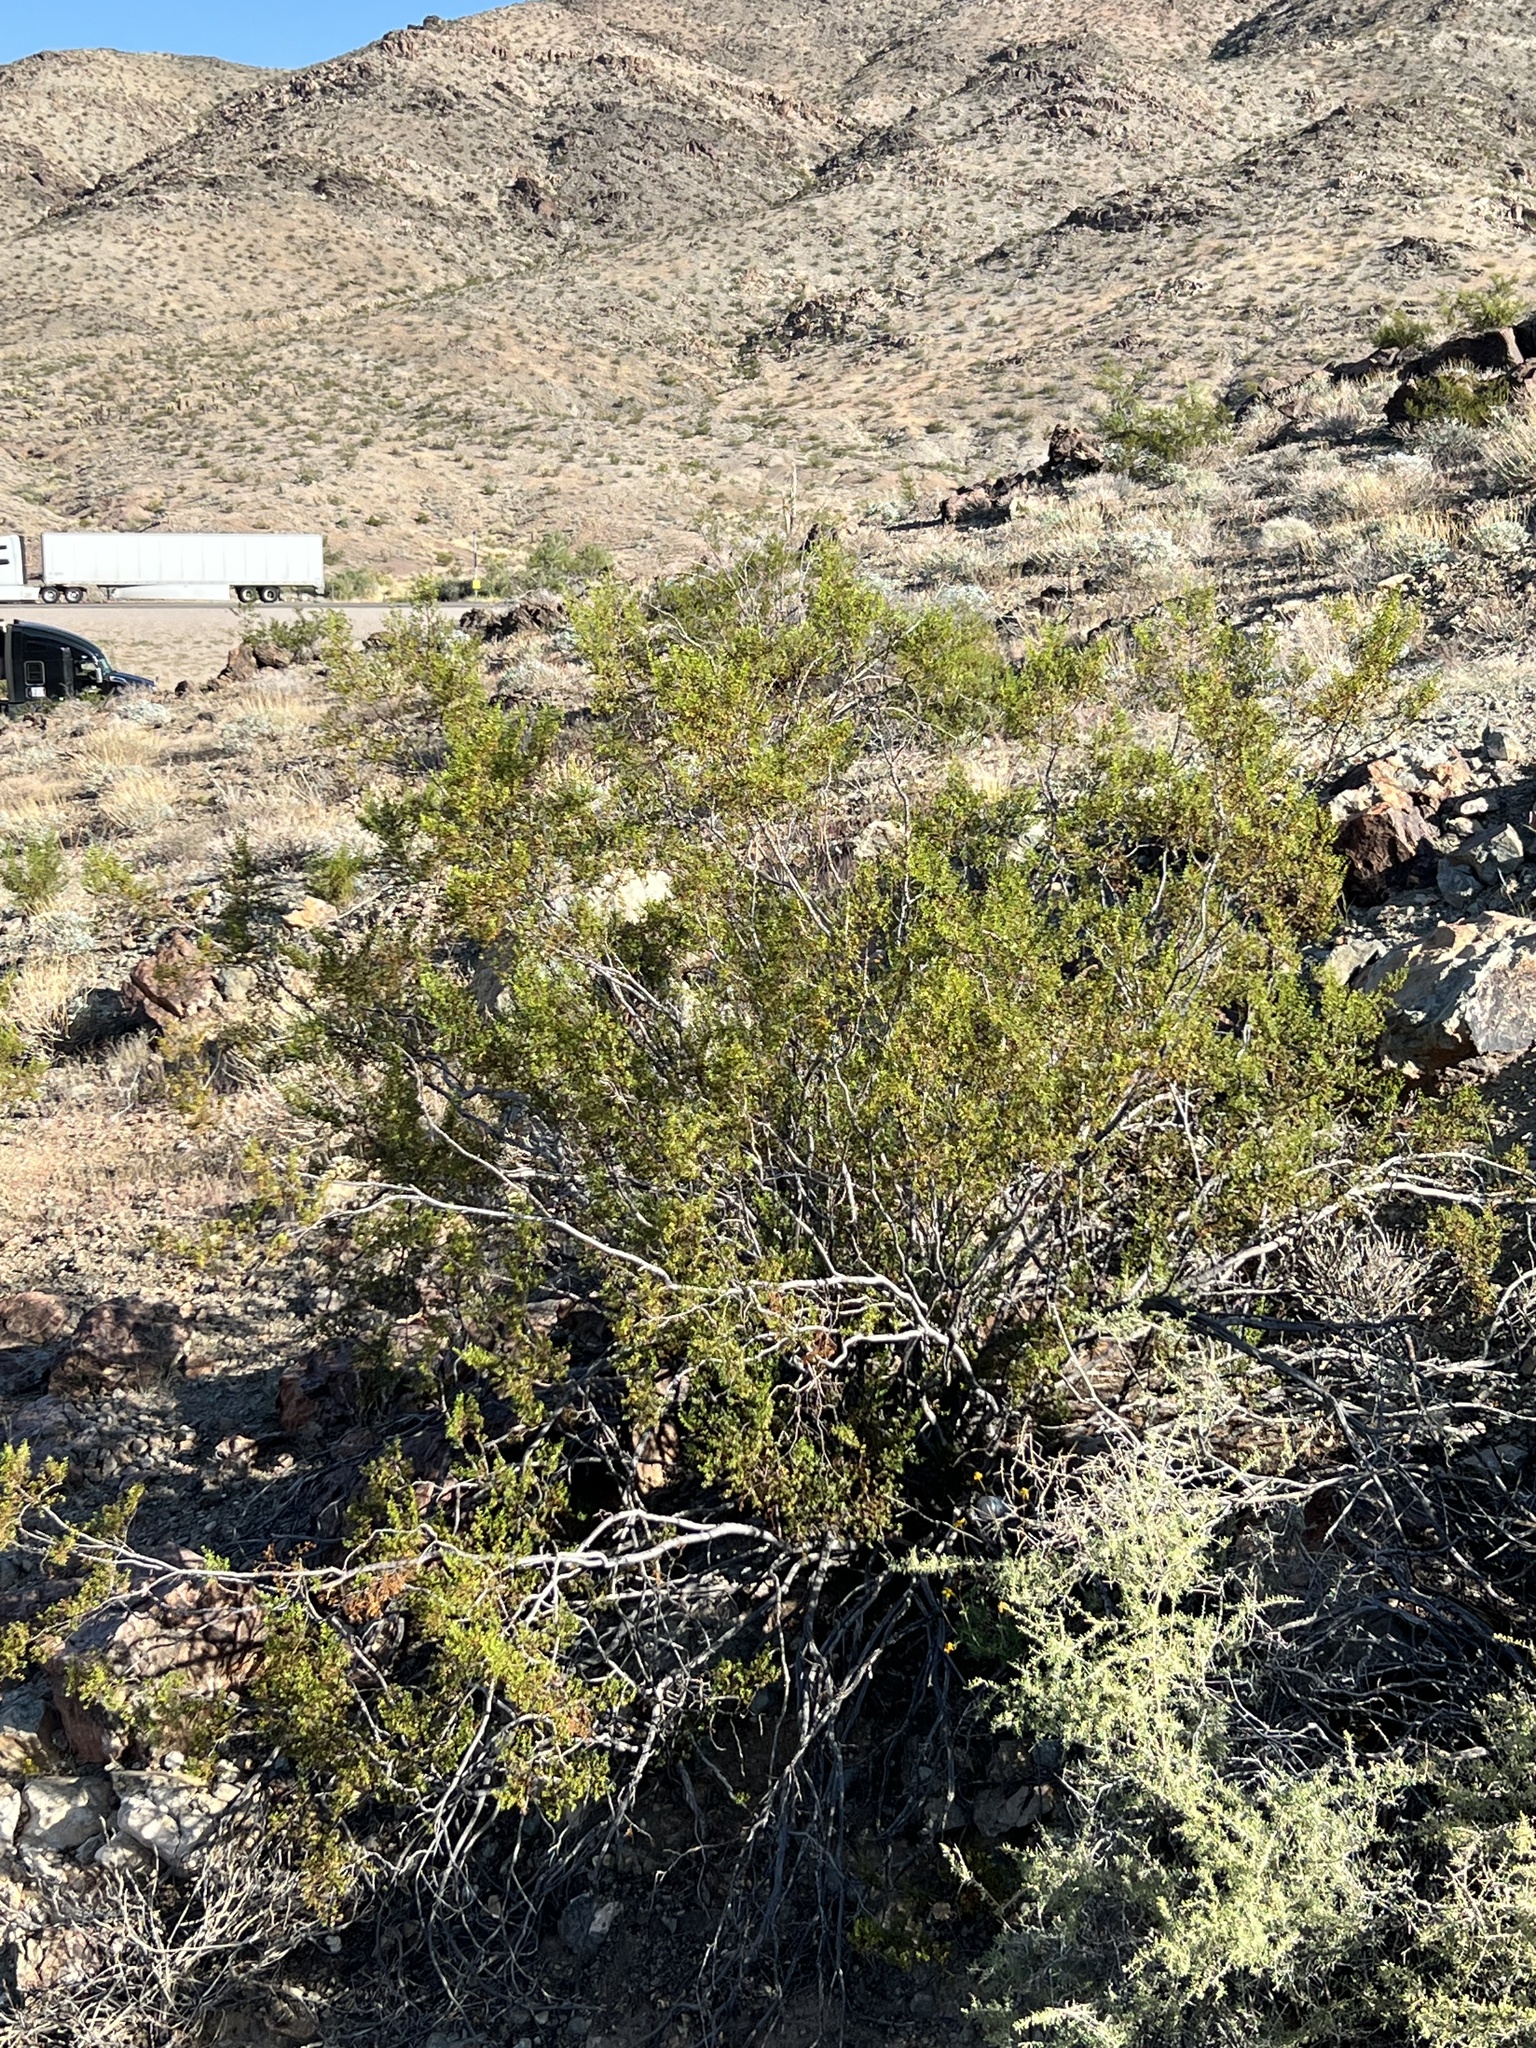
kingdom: Plantae
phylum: Tracheophyta
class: Magnoliopsida
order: Zygophyllales
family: Zygophyllaceae
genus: Larrea
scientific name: Larrea tridentata
